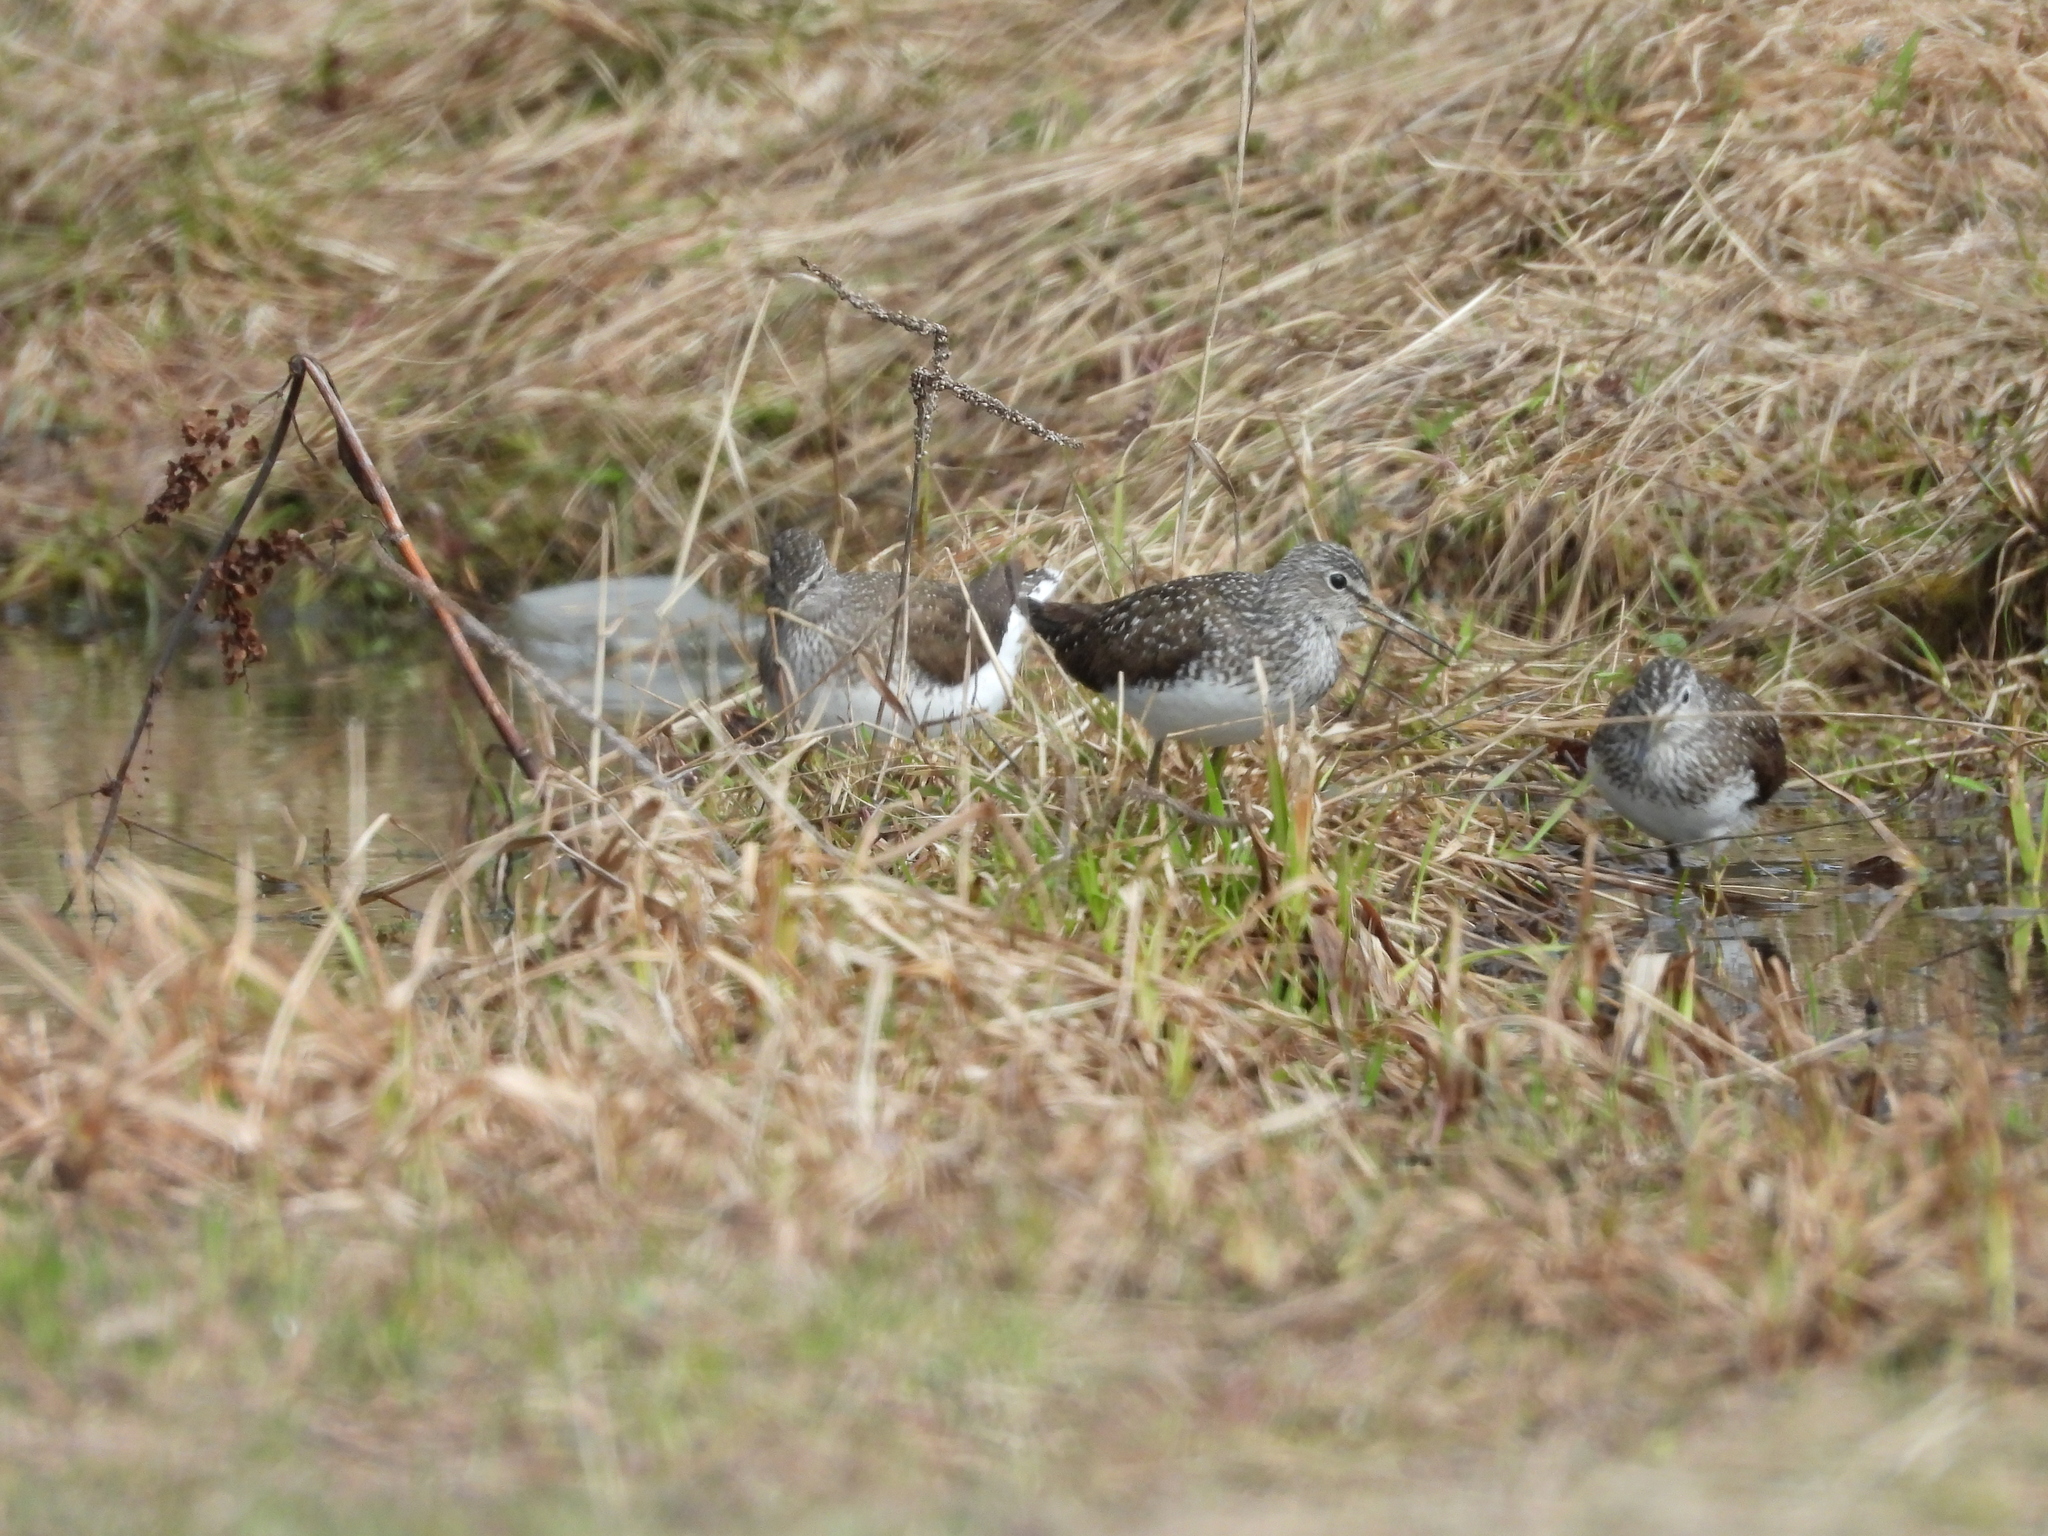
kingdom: Animalia
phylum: Chordata
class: Aves
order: Charadriiformes
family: Scolopacidae
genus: Tringa
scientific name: Tringa ochropus
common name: Green sandpiper
